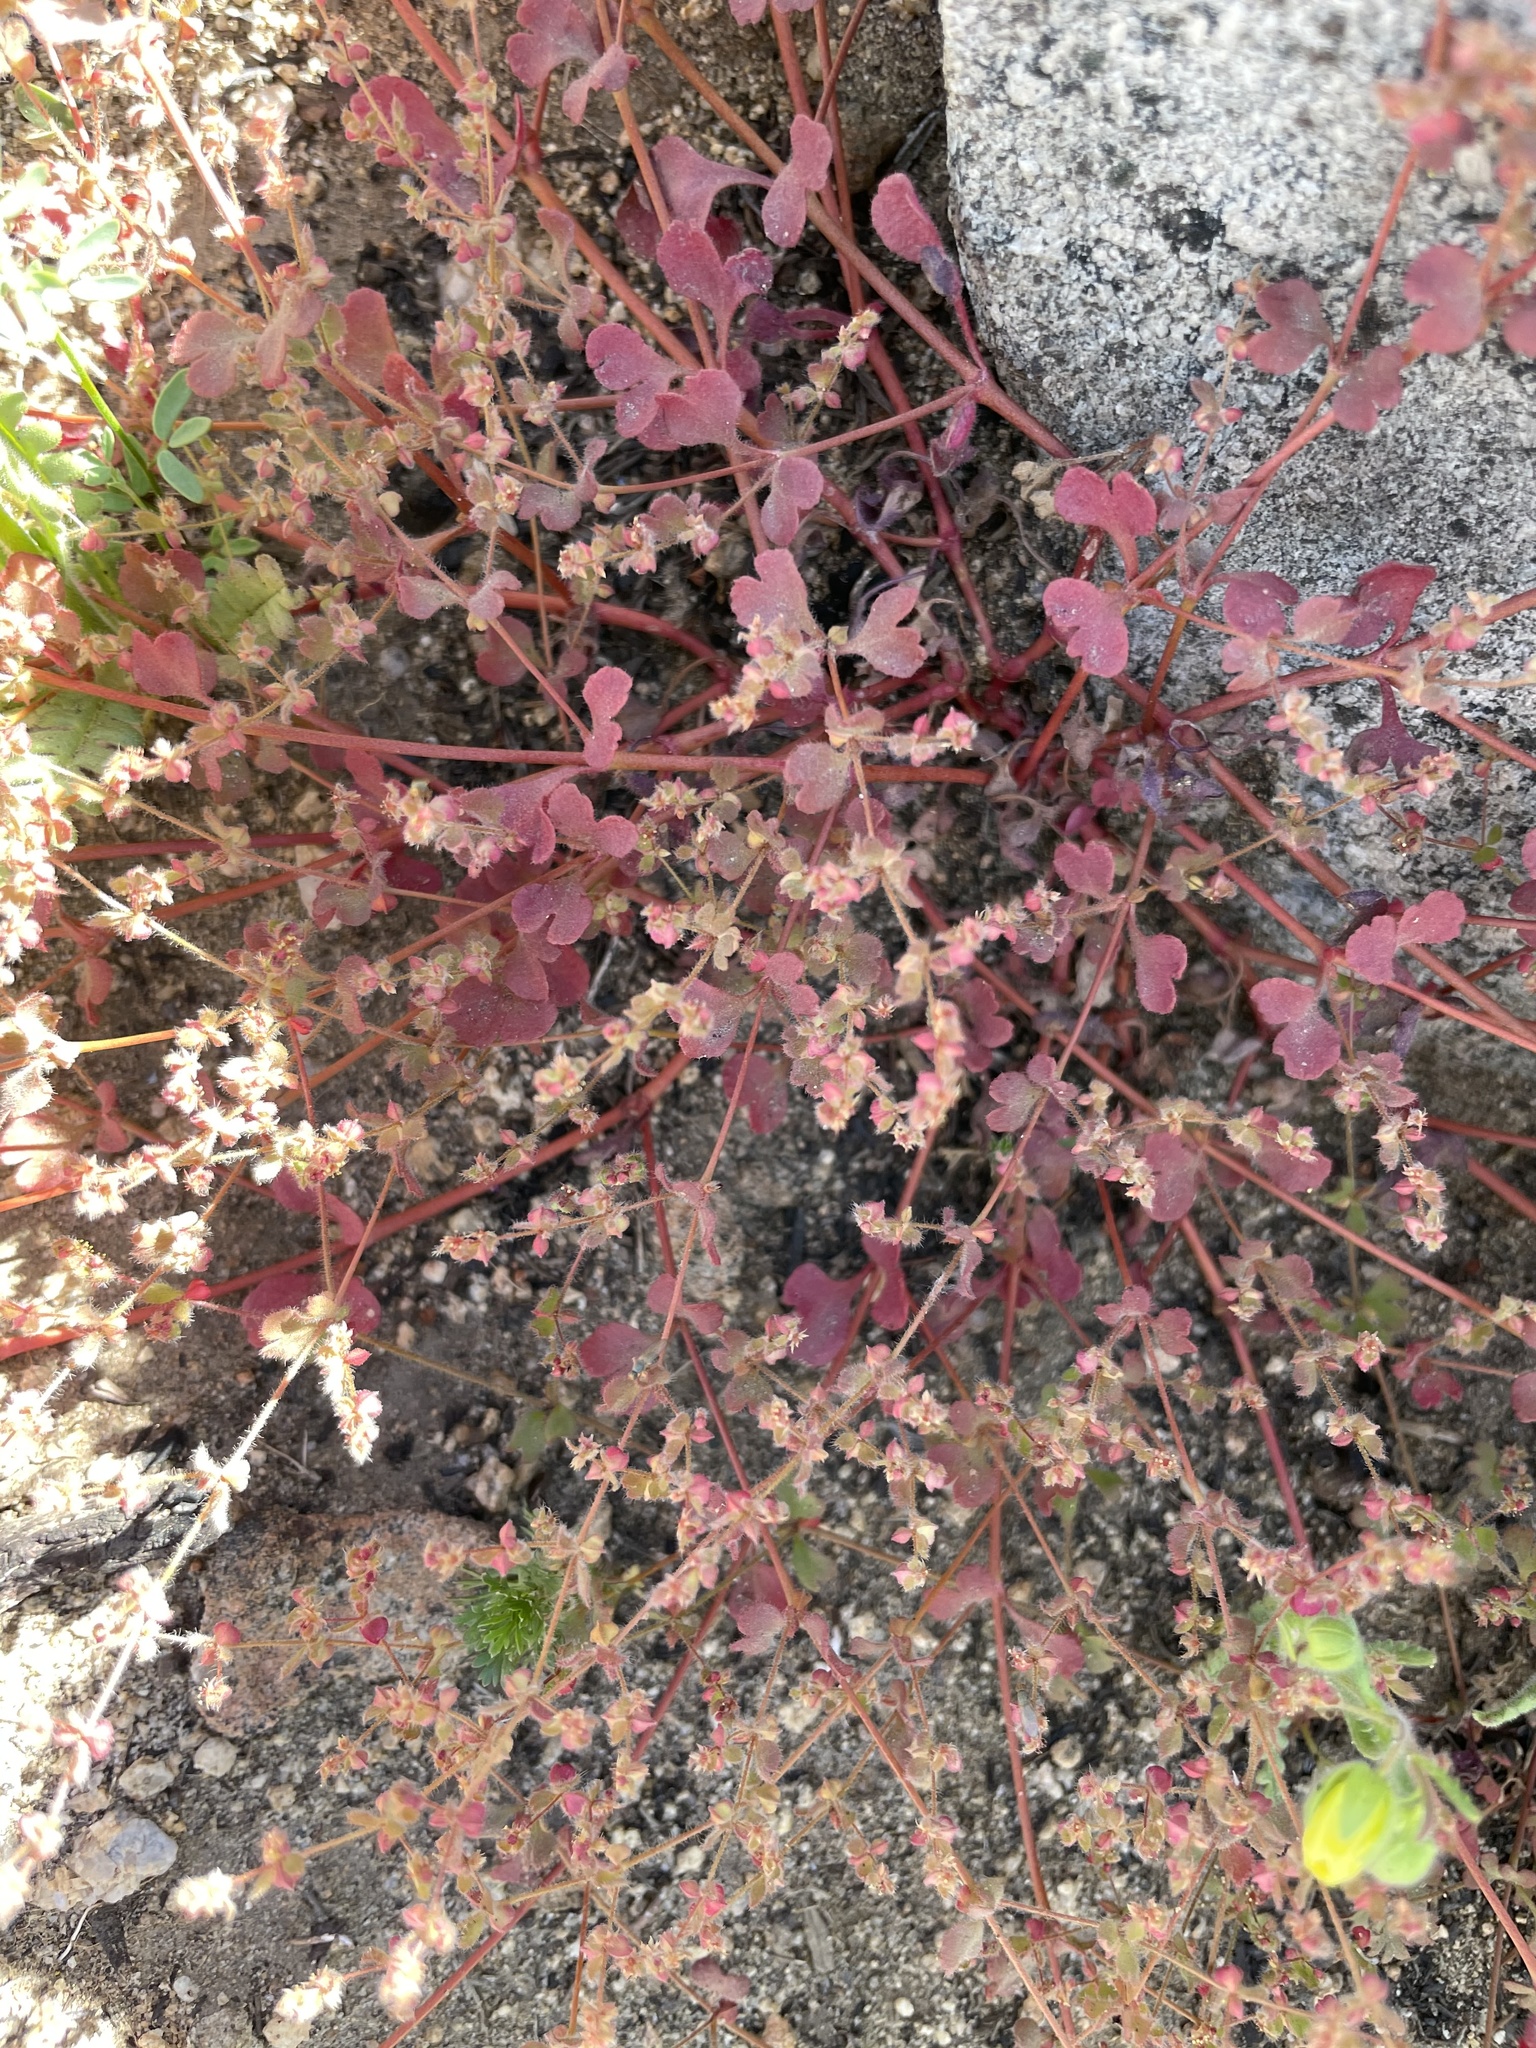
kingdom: Plantae
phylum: Tracheophyta
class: Magnoliopsida
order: Caryophyllales
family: Polygonaceae
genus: Pterostegia
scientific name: Pterostegia drymarioides
